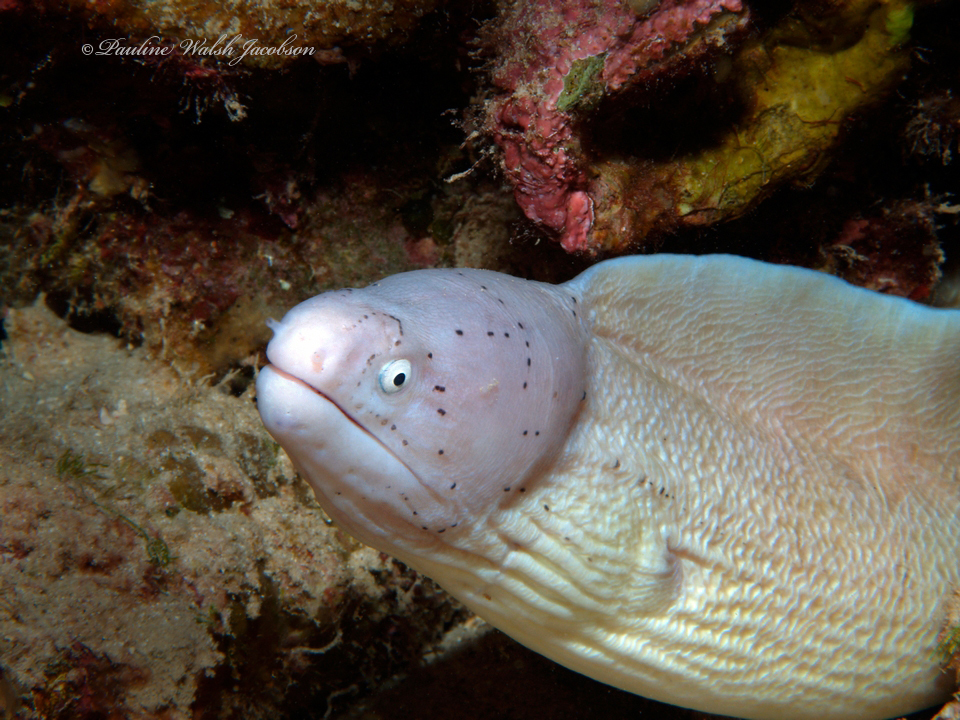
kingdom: Animalia
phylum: Chordata
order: Anguilliformes
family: Muraenidae
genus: Gymnothorax
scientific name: Gymnothorax griseus
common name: Geometric moray
